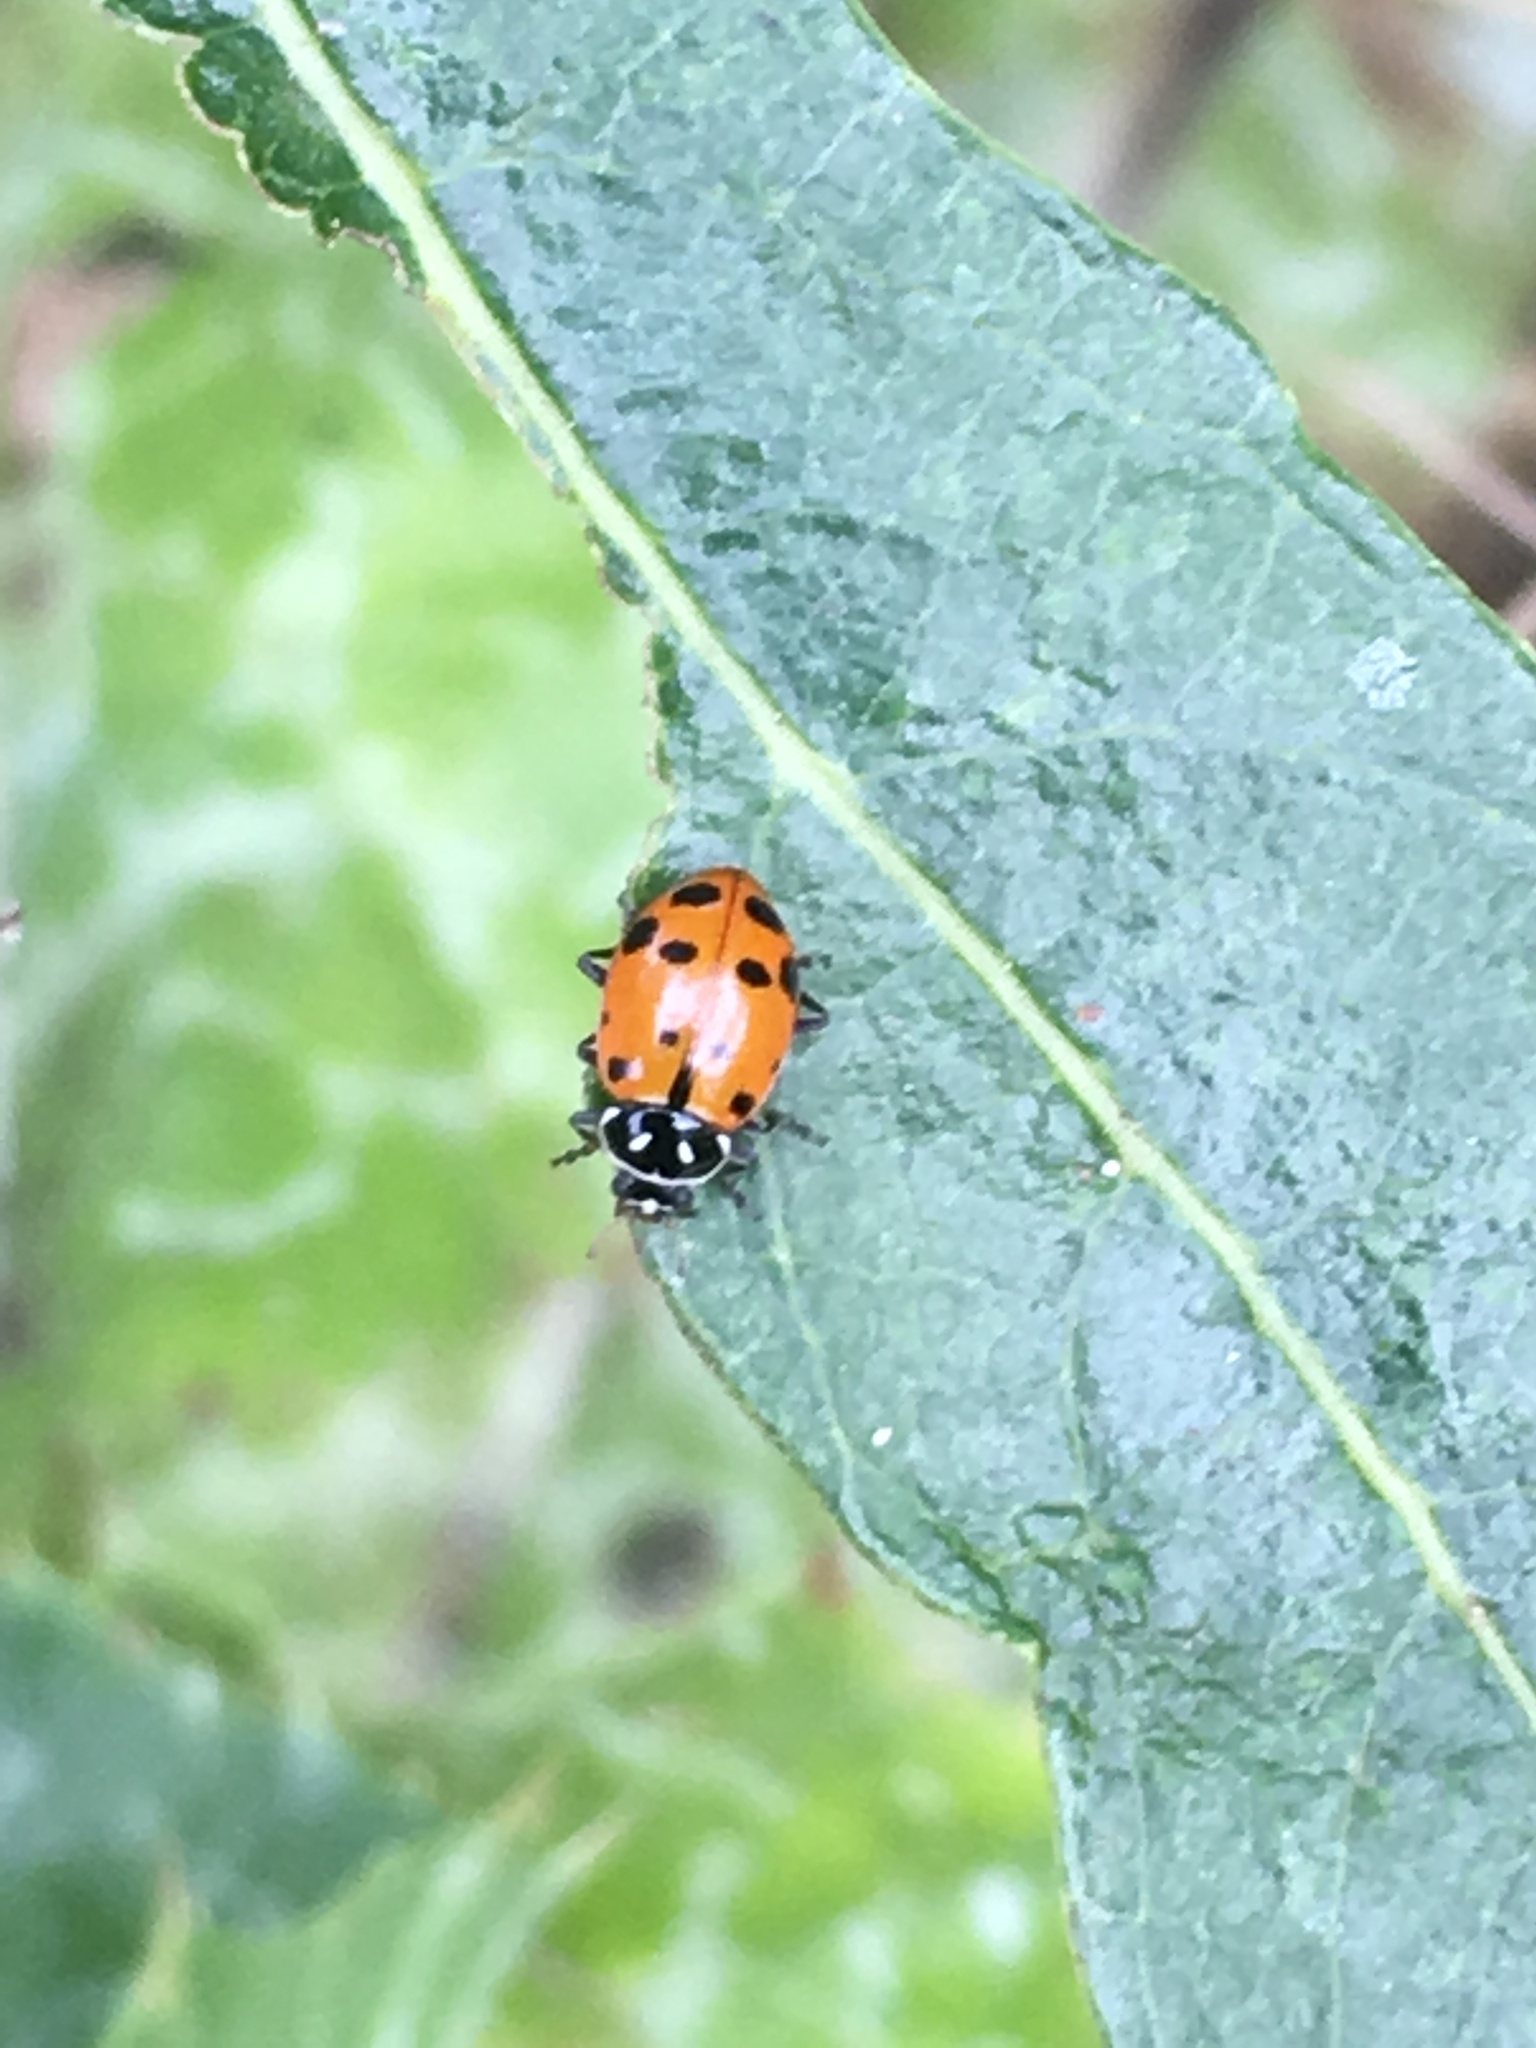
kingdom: Animalia
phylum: Arthropoda
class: Insecta
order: Coleoptera
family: Coccinellidae
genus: Hippodamia
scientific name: Hippodamia convergens
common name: Convergent lady beetle
